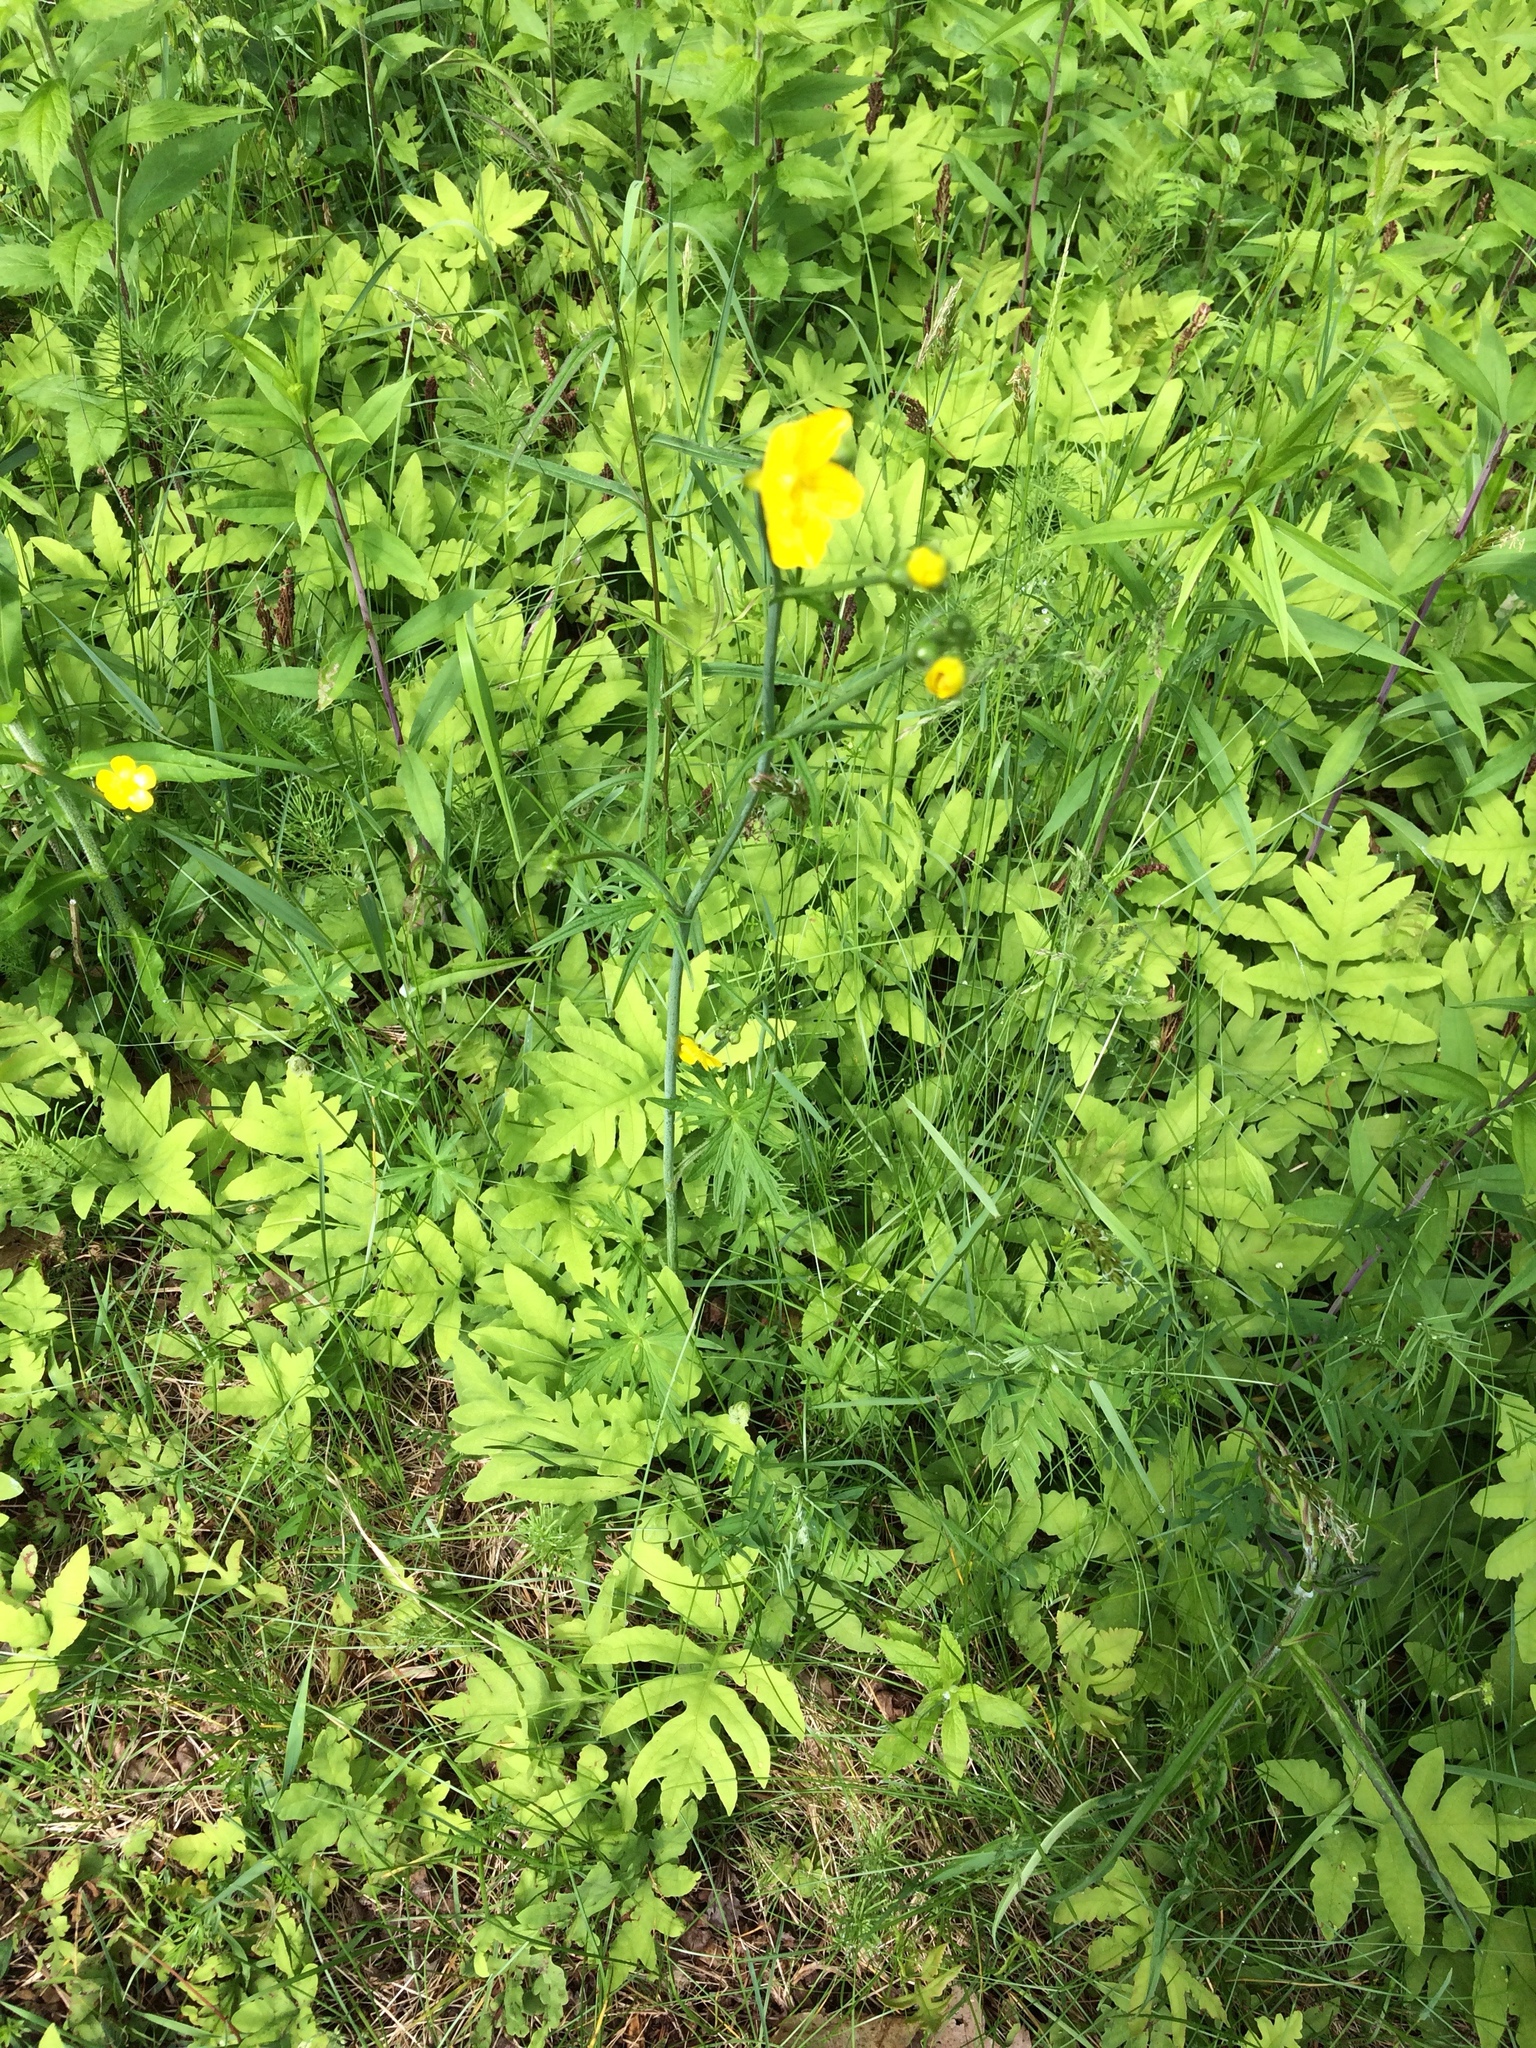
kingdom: Plantae
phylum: Tracheophyta
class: Magnoliopsida
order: Ranunculales
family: Ranunculaceae
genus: Ranunculus
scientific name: Ranunculus acris
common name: Meadow buttercup
